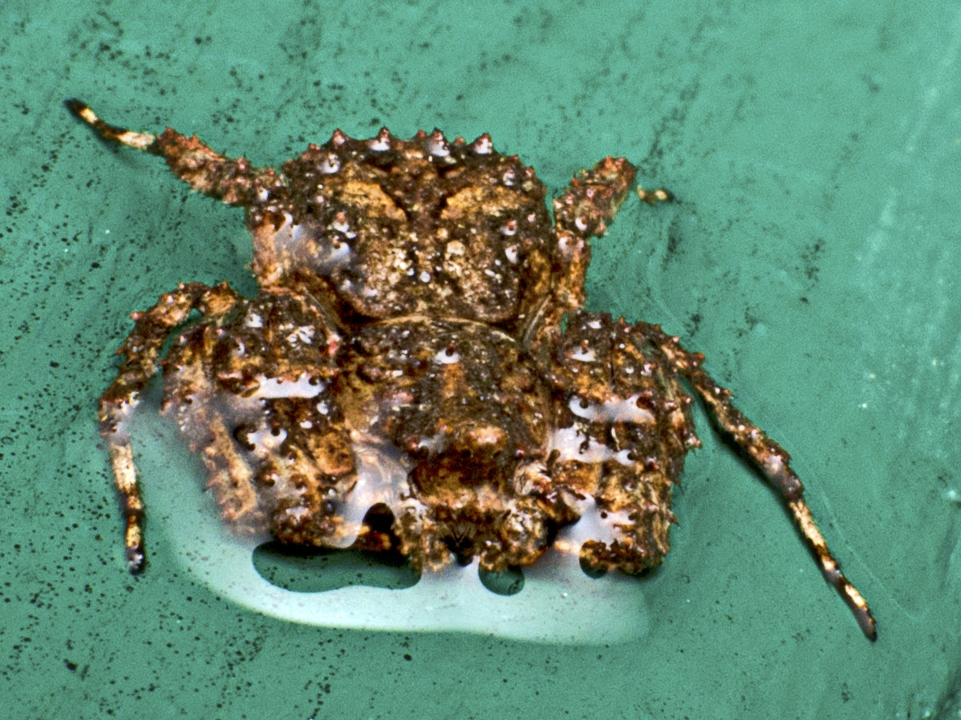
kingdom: Animalia
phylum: Arthropoda
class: Arachnida
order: Araneae
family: Thomisidae
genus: Stephanopis
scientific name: Stephanopis altifrons
